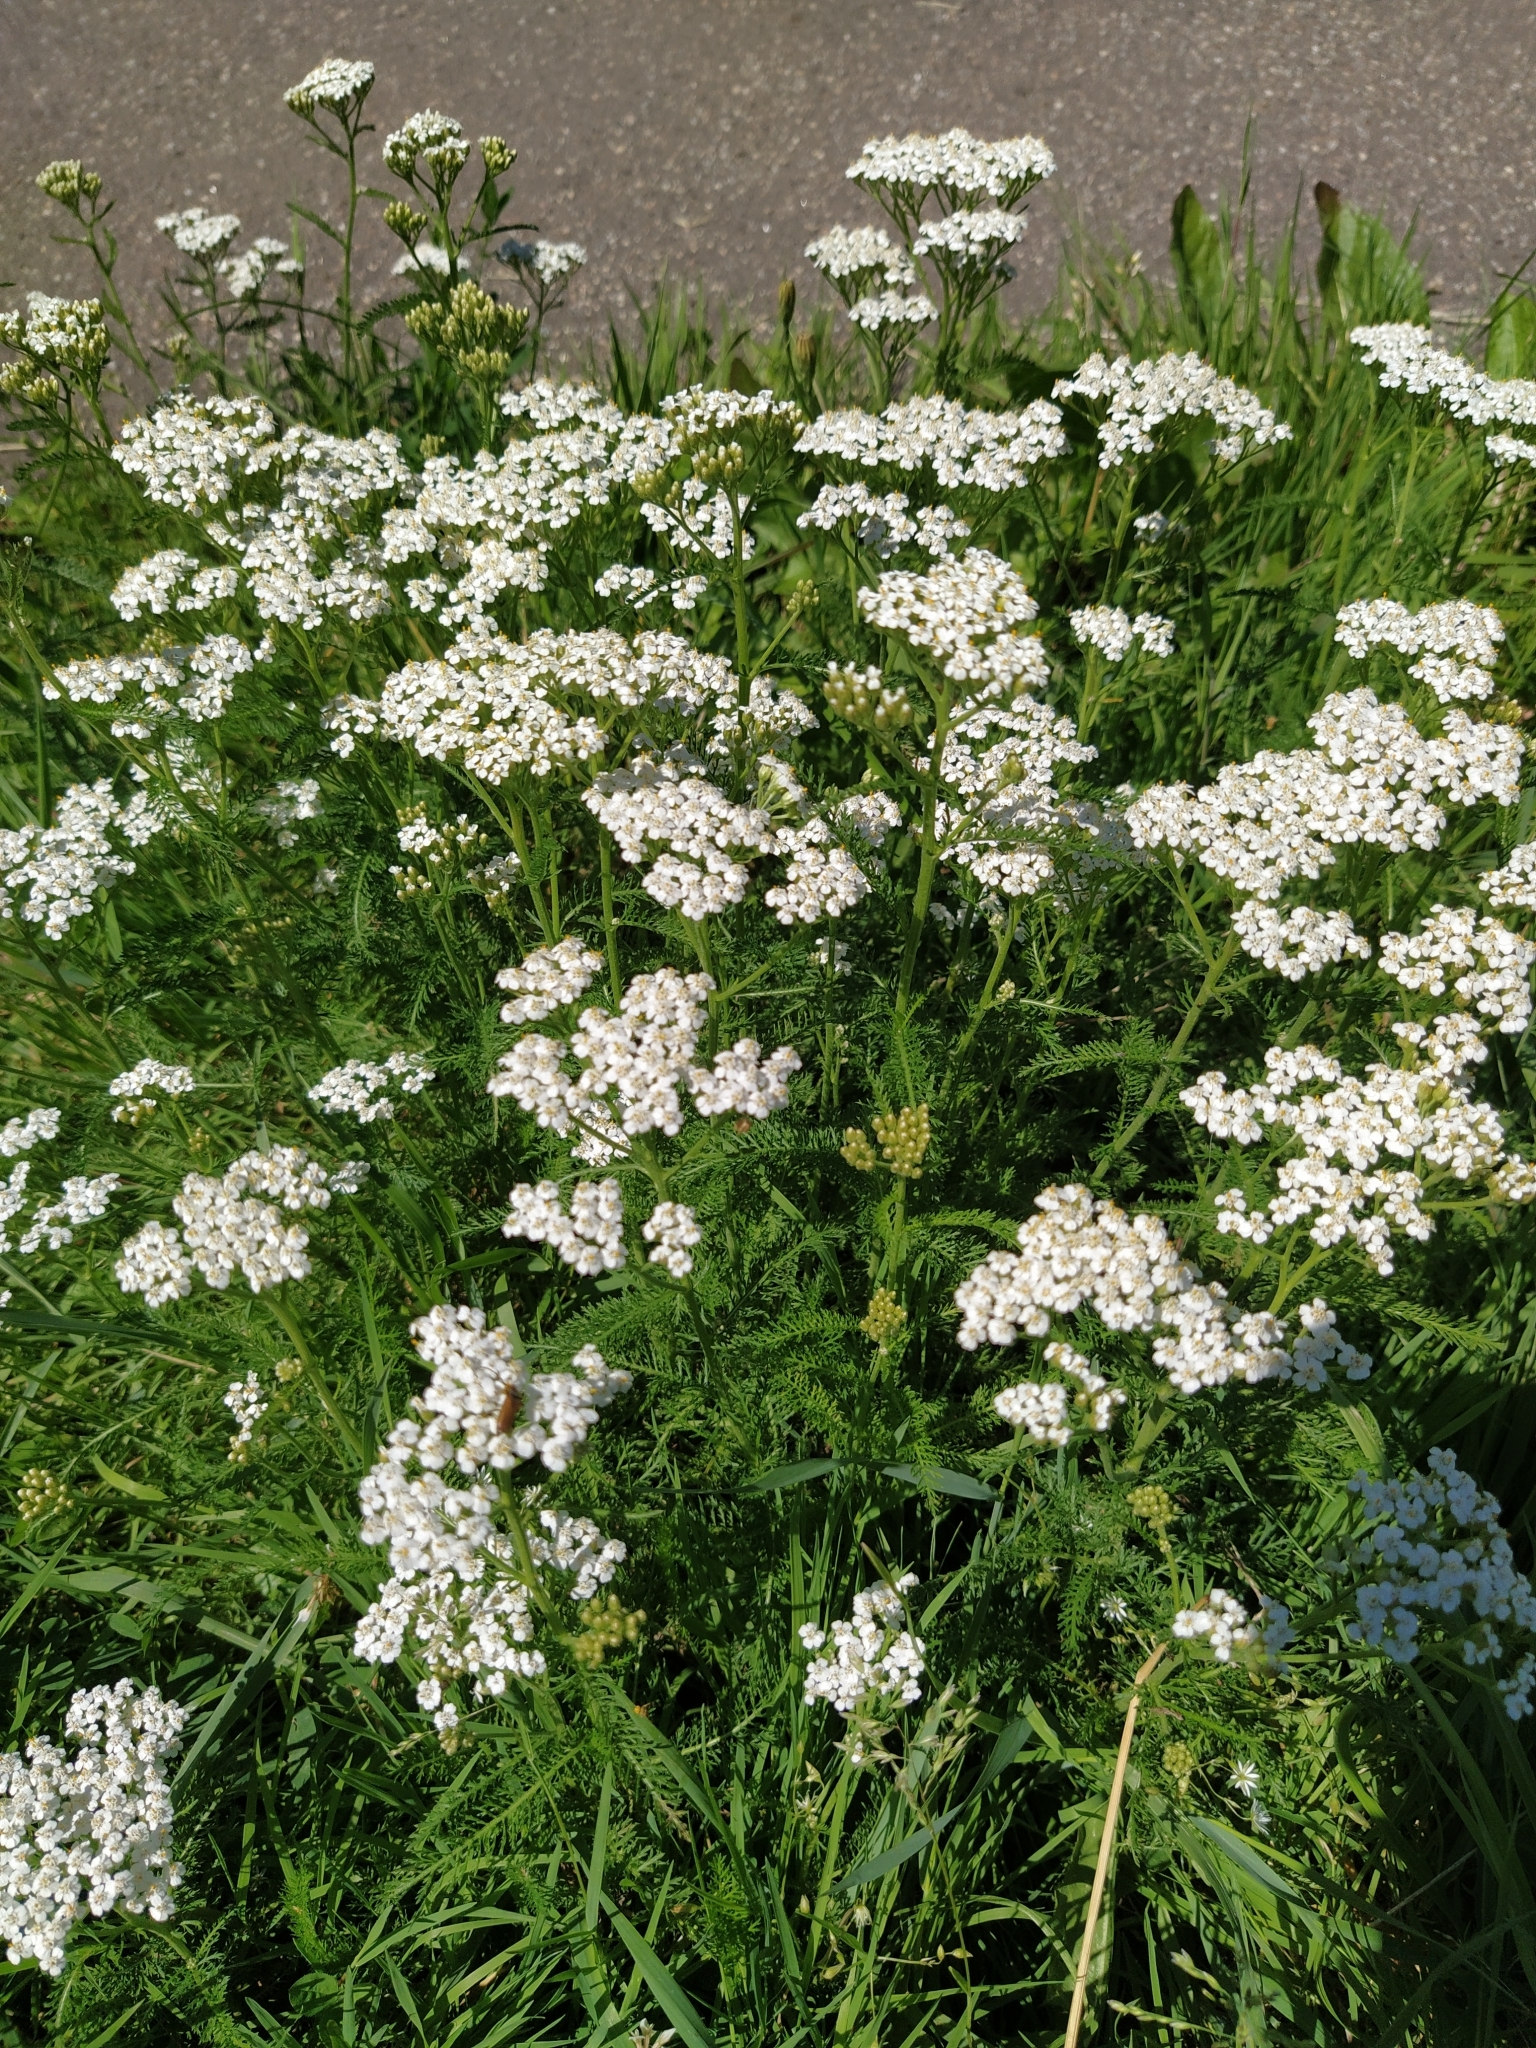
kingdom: Plantae
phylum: Tracheophyta
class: Magnoliopsida
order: Asterales
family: Asteraceae
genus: Achillea
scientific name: Achillea millefolium
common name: Yarrow
